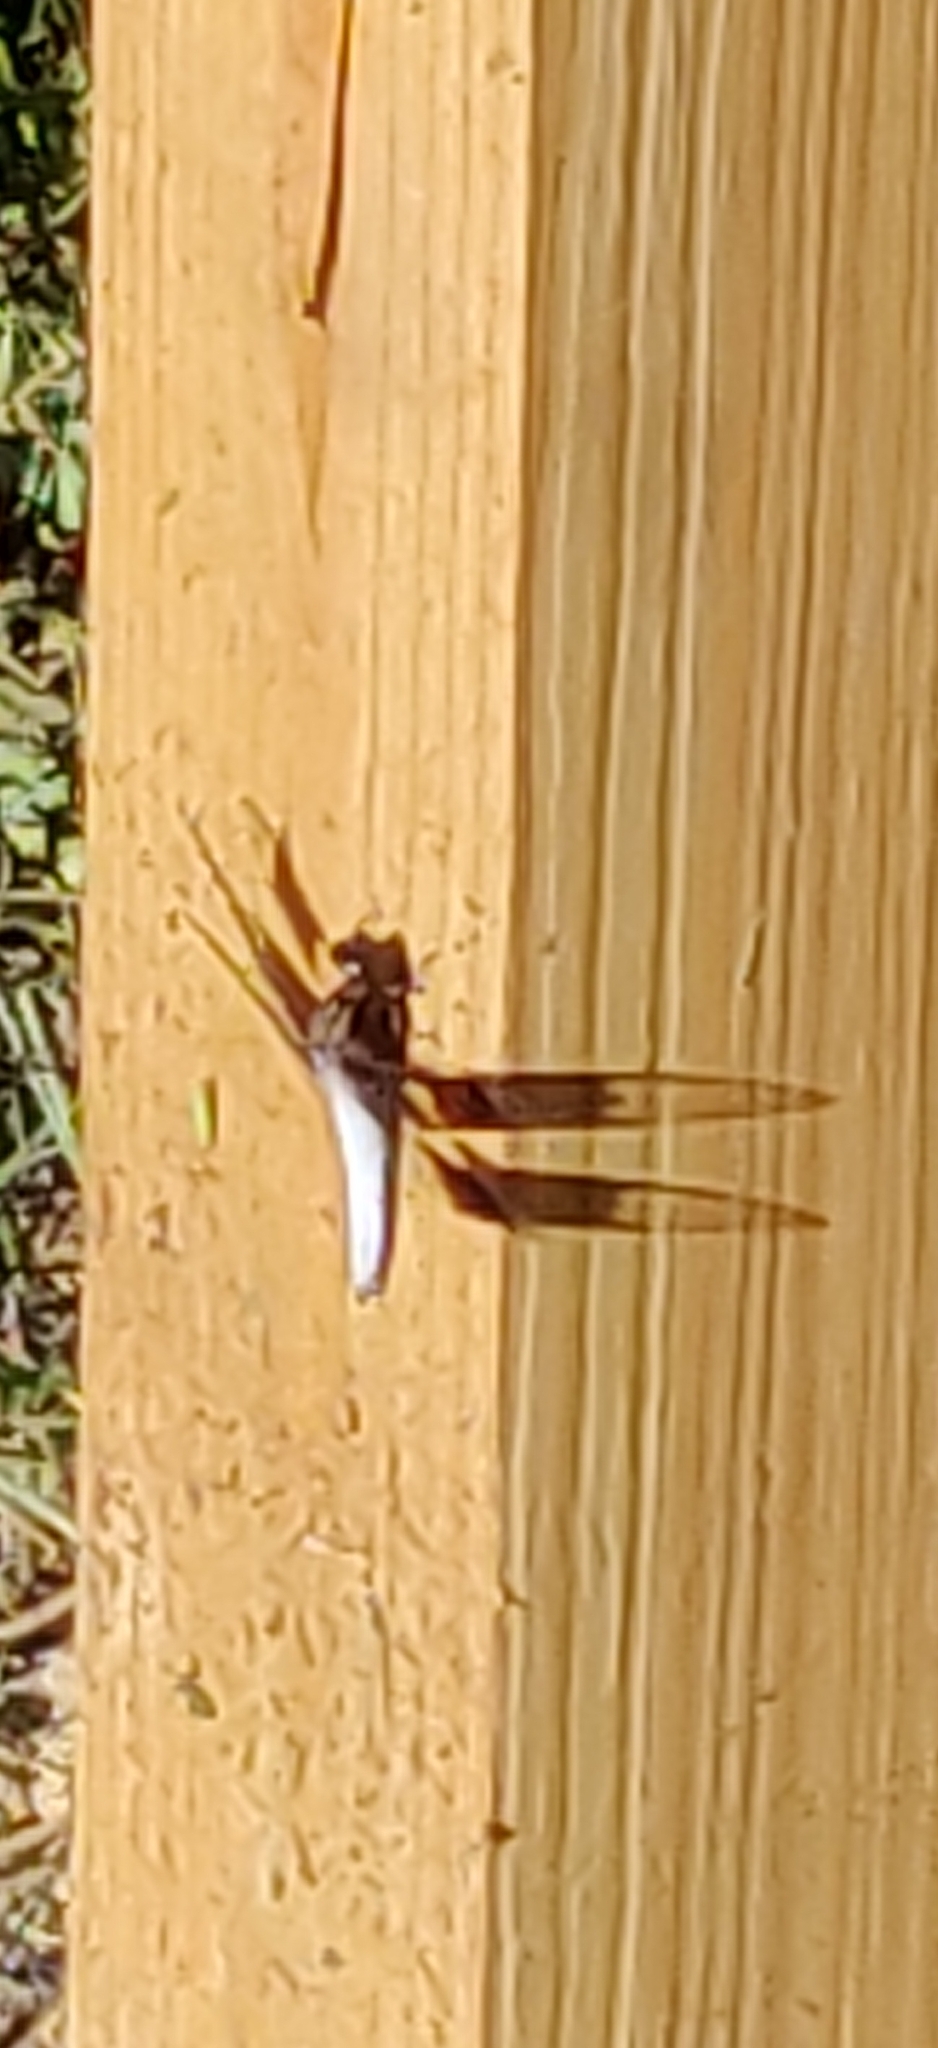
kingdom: Animalia
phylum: Arthropoda
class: Insecta
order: Odonata
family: Libellulidae
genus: Plathemis
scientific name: Plathemis lydia
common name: Common whitetail
